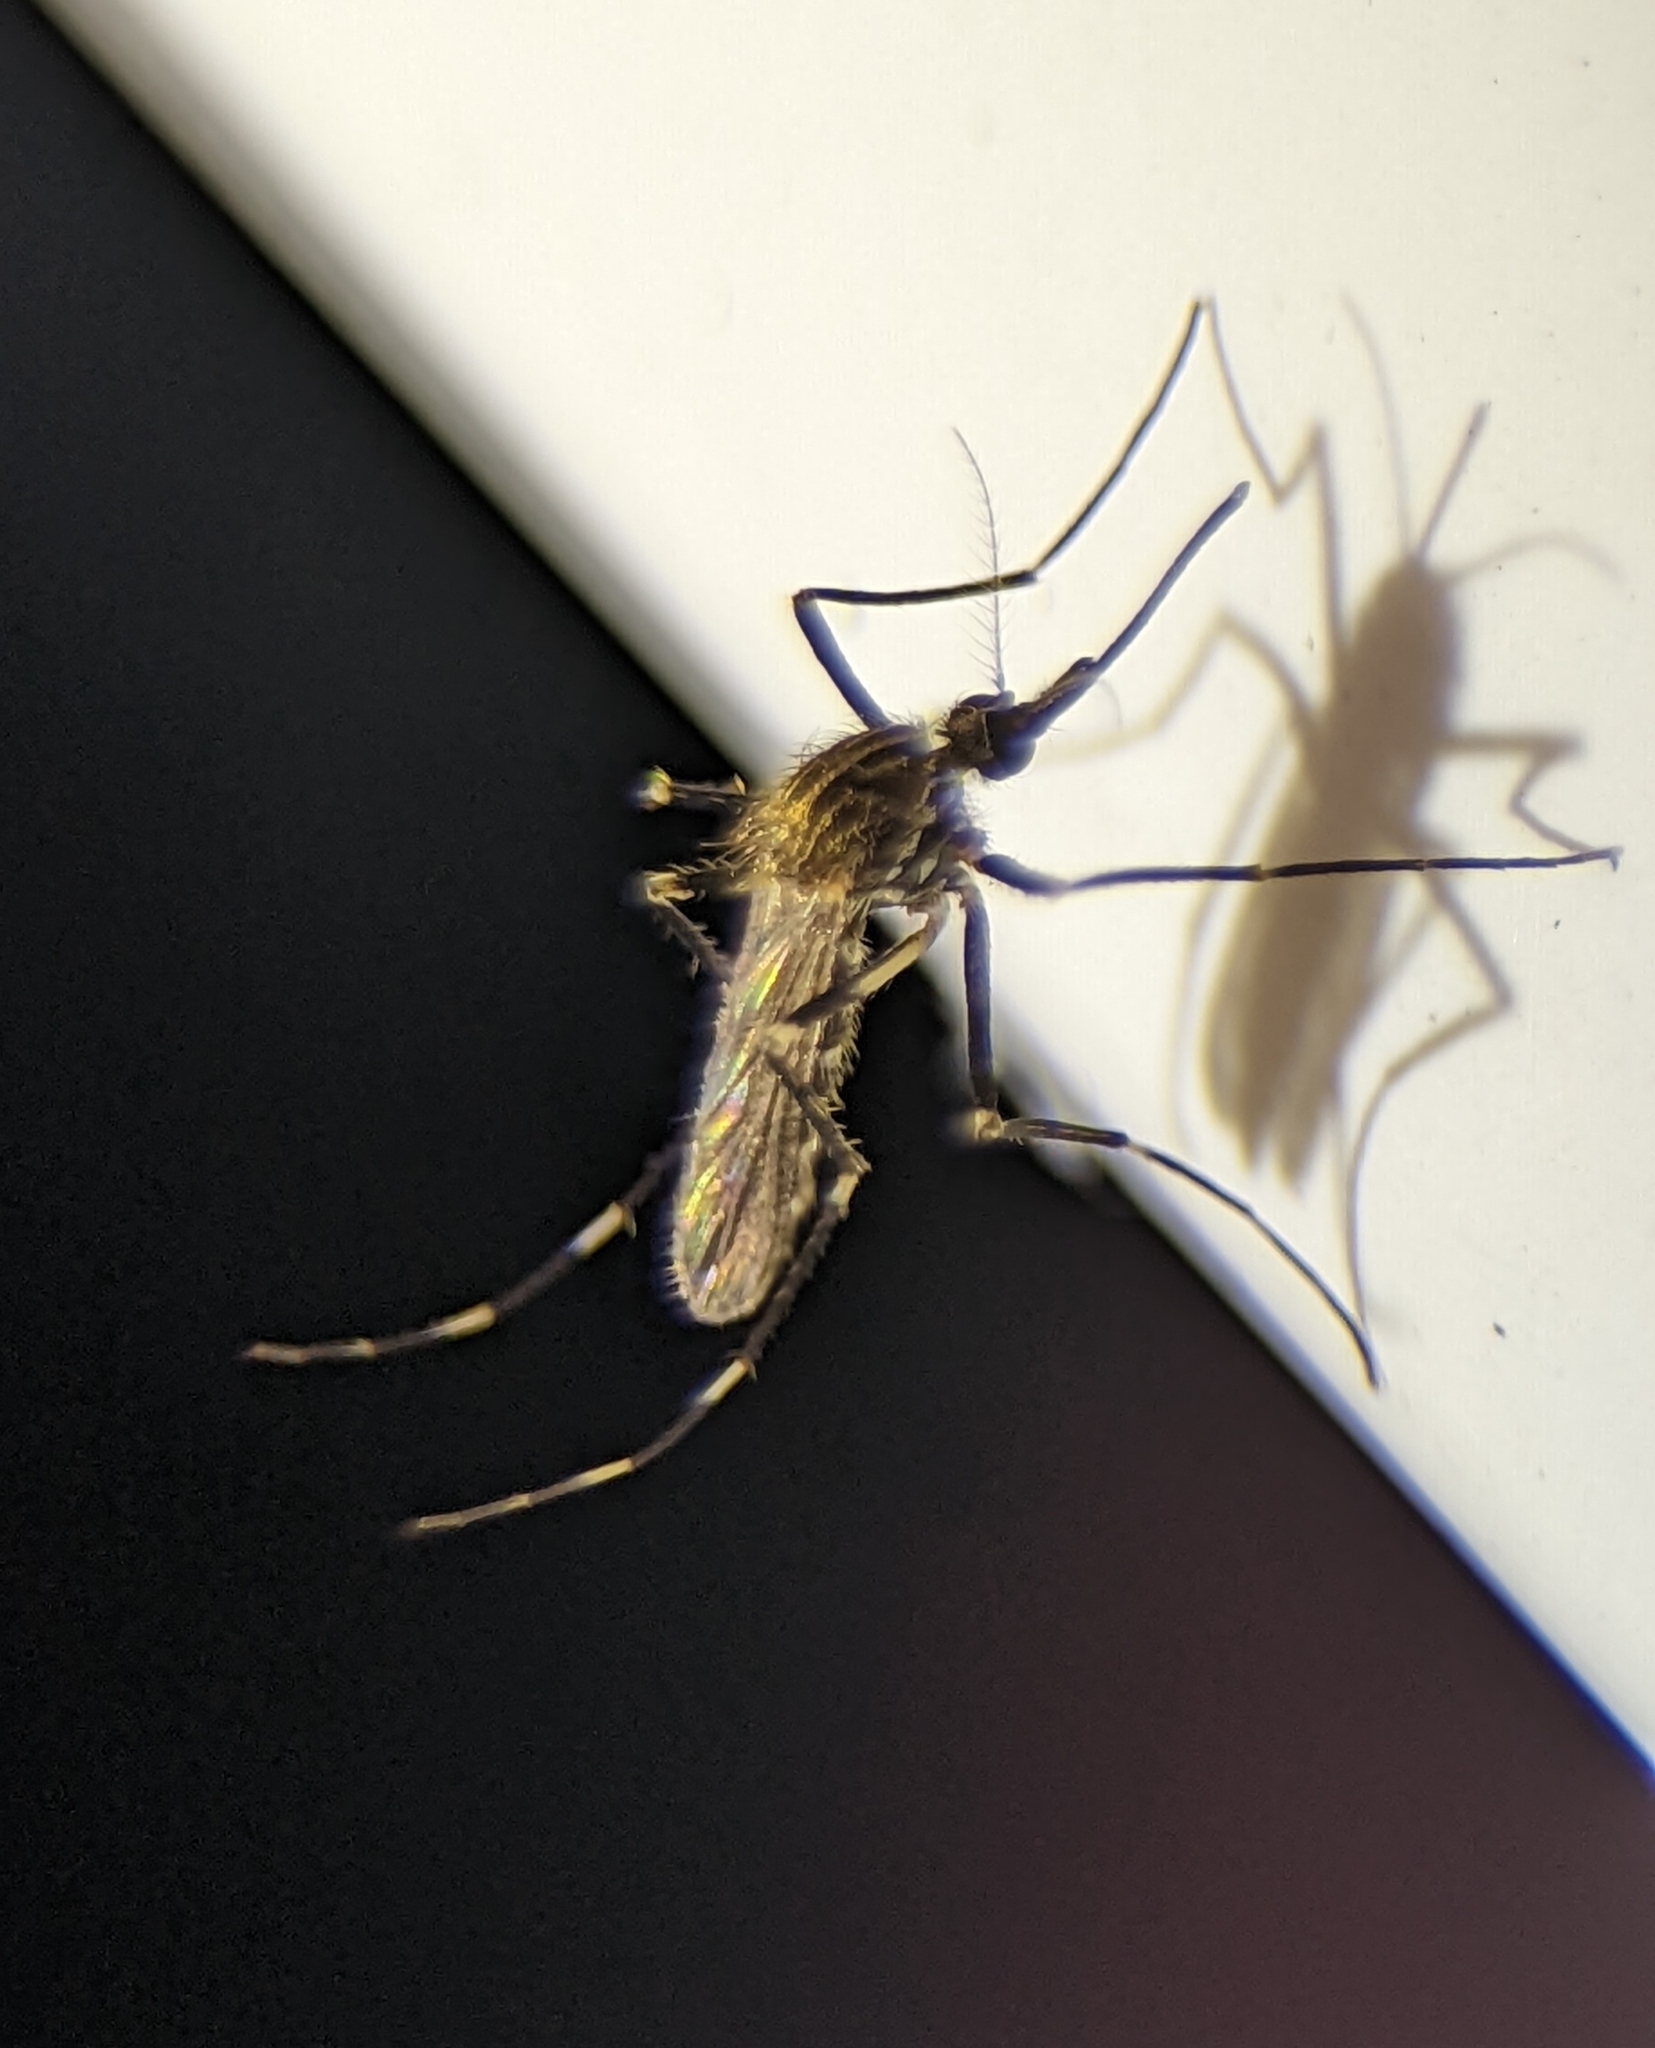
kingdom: Animalia
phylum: Arthropoda
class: Insecta
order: Diptera
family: Culicidae
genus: Aedes
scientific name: Aedes japonicus
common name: Asian bush mosquito
